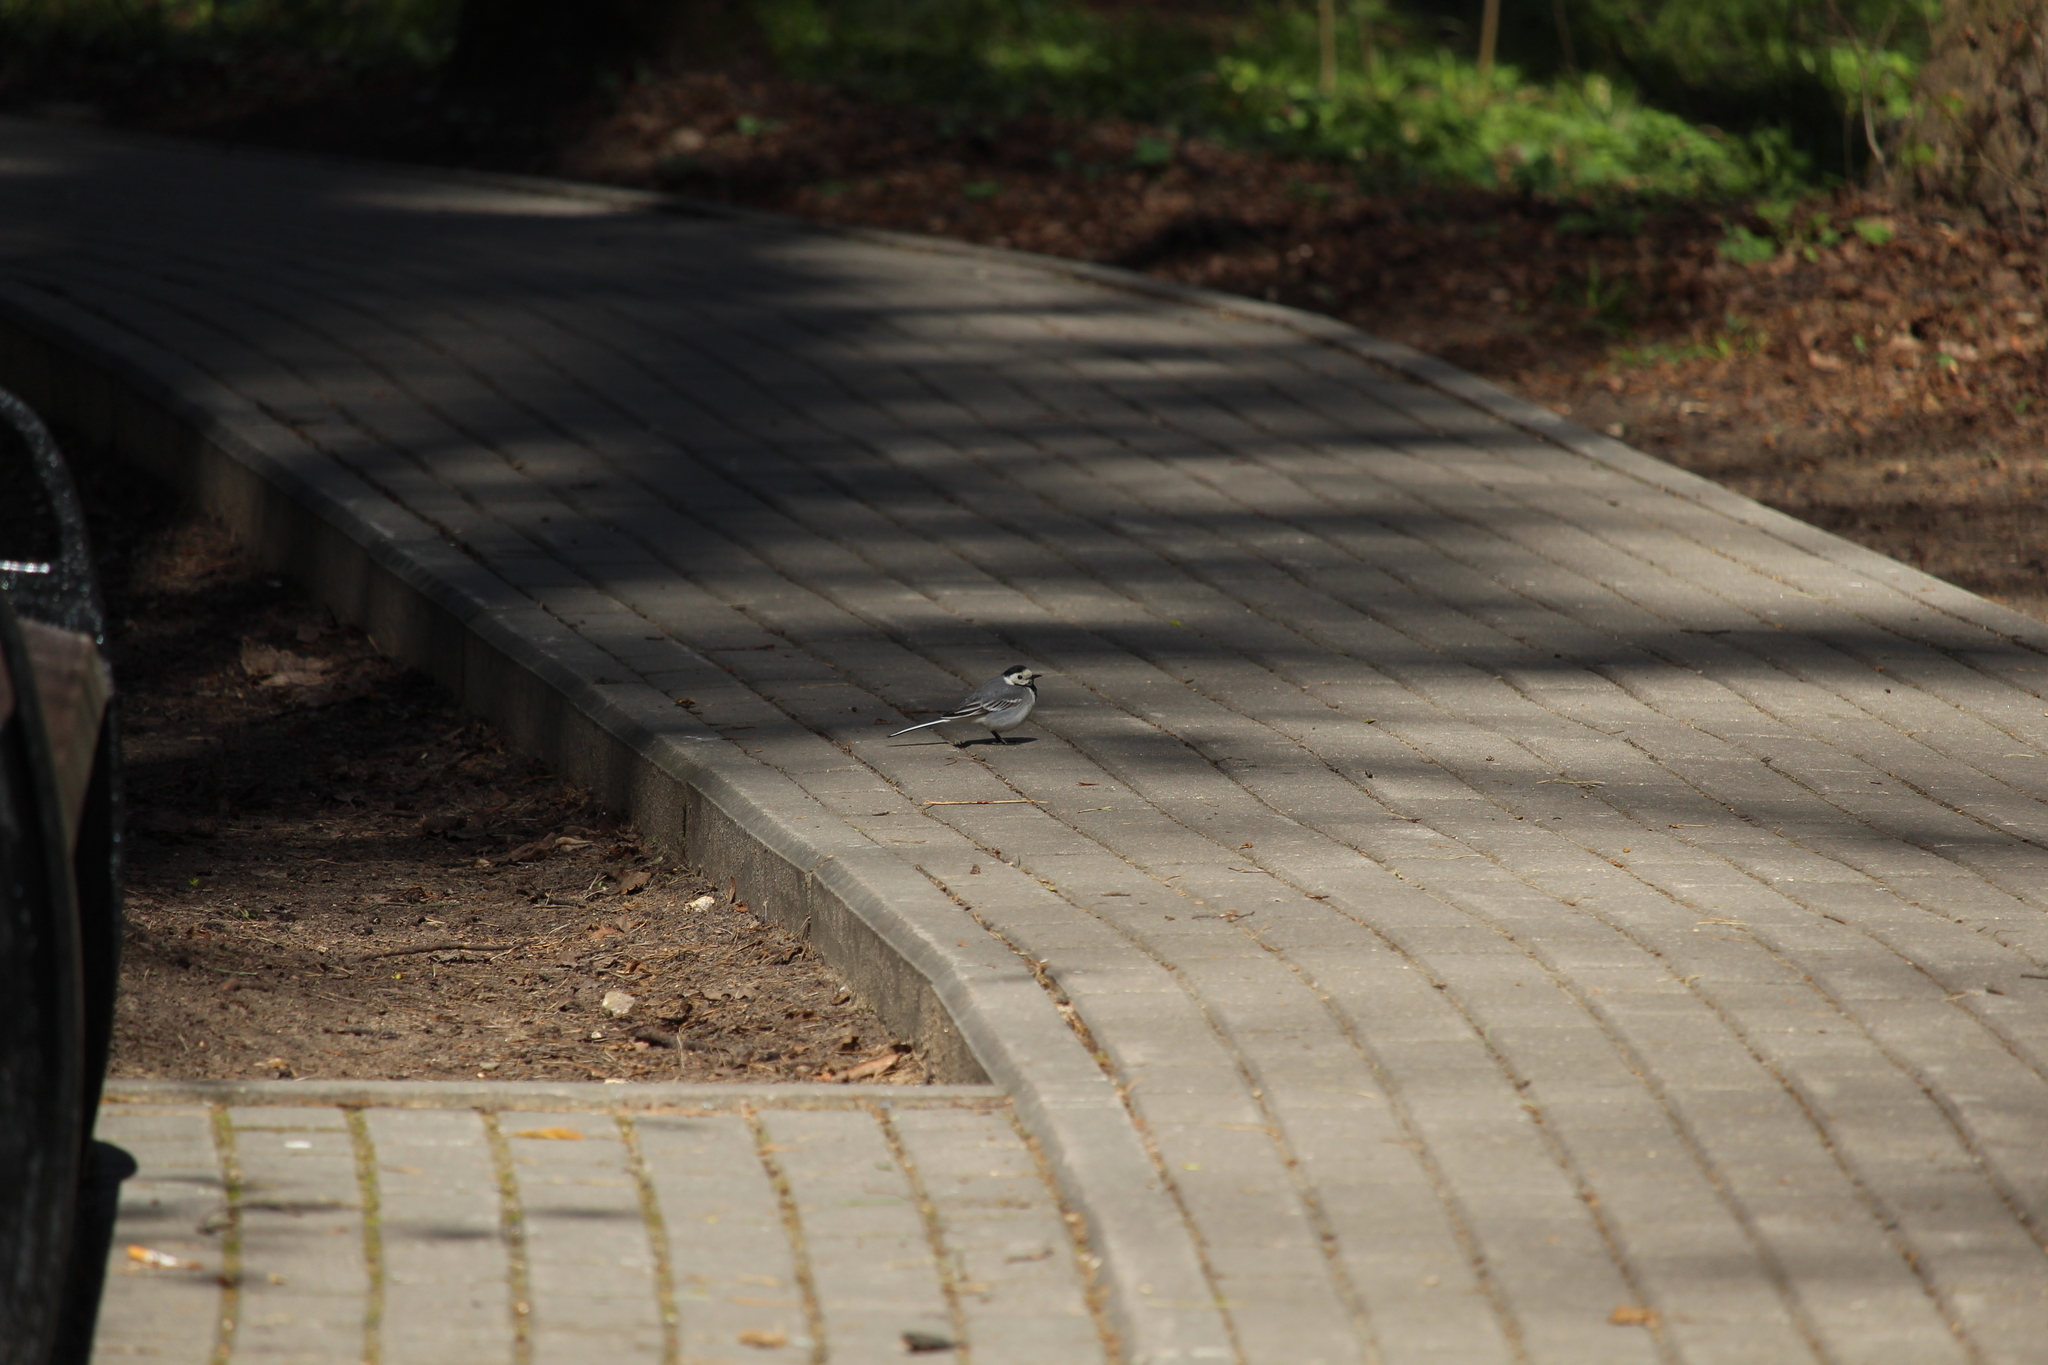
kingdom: Animalia
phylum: Chordata
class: Aves
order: Passeriformes
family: Motacillidae
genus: Motacilla
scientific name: Motacilla alba
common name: White wagtail
